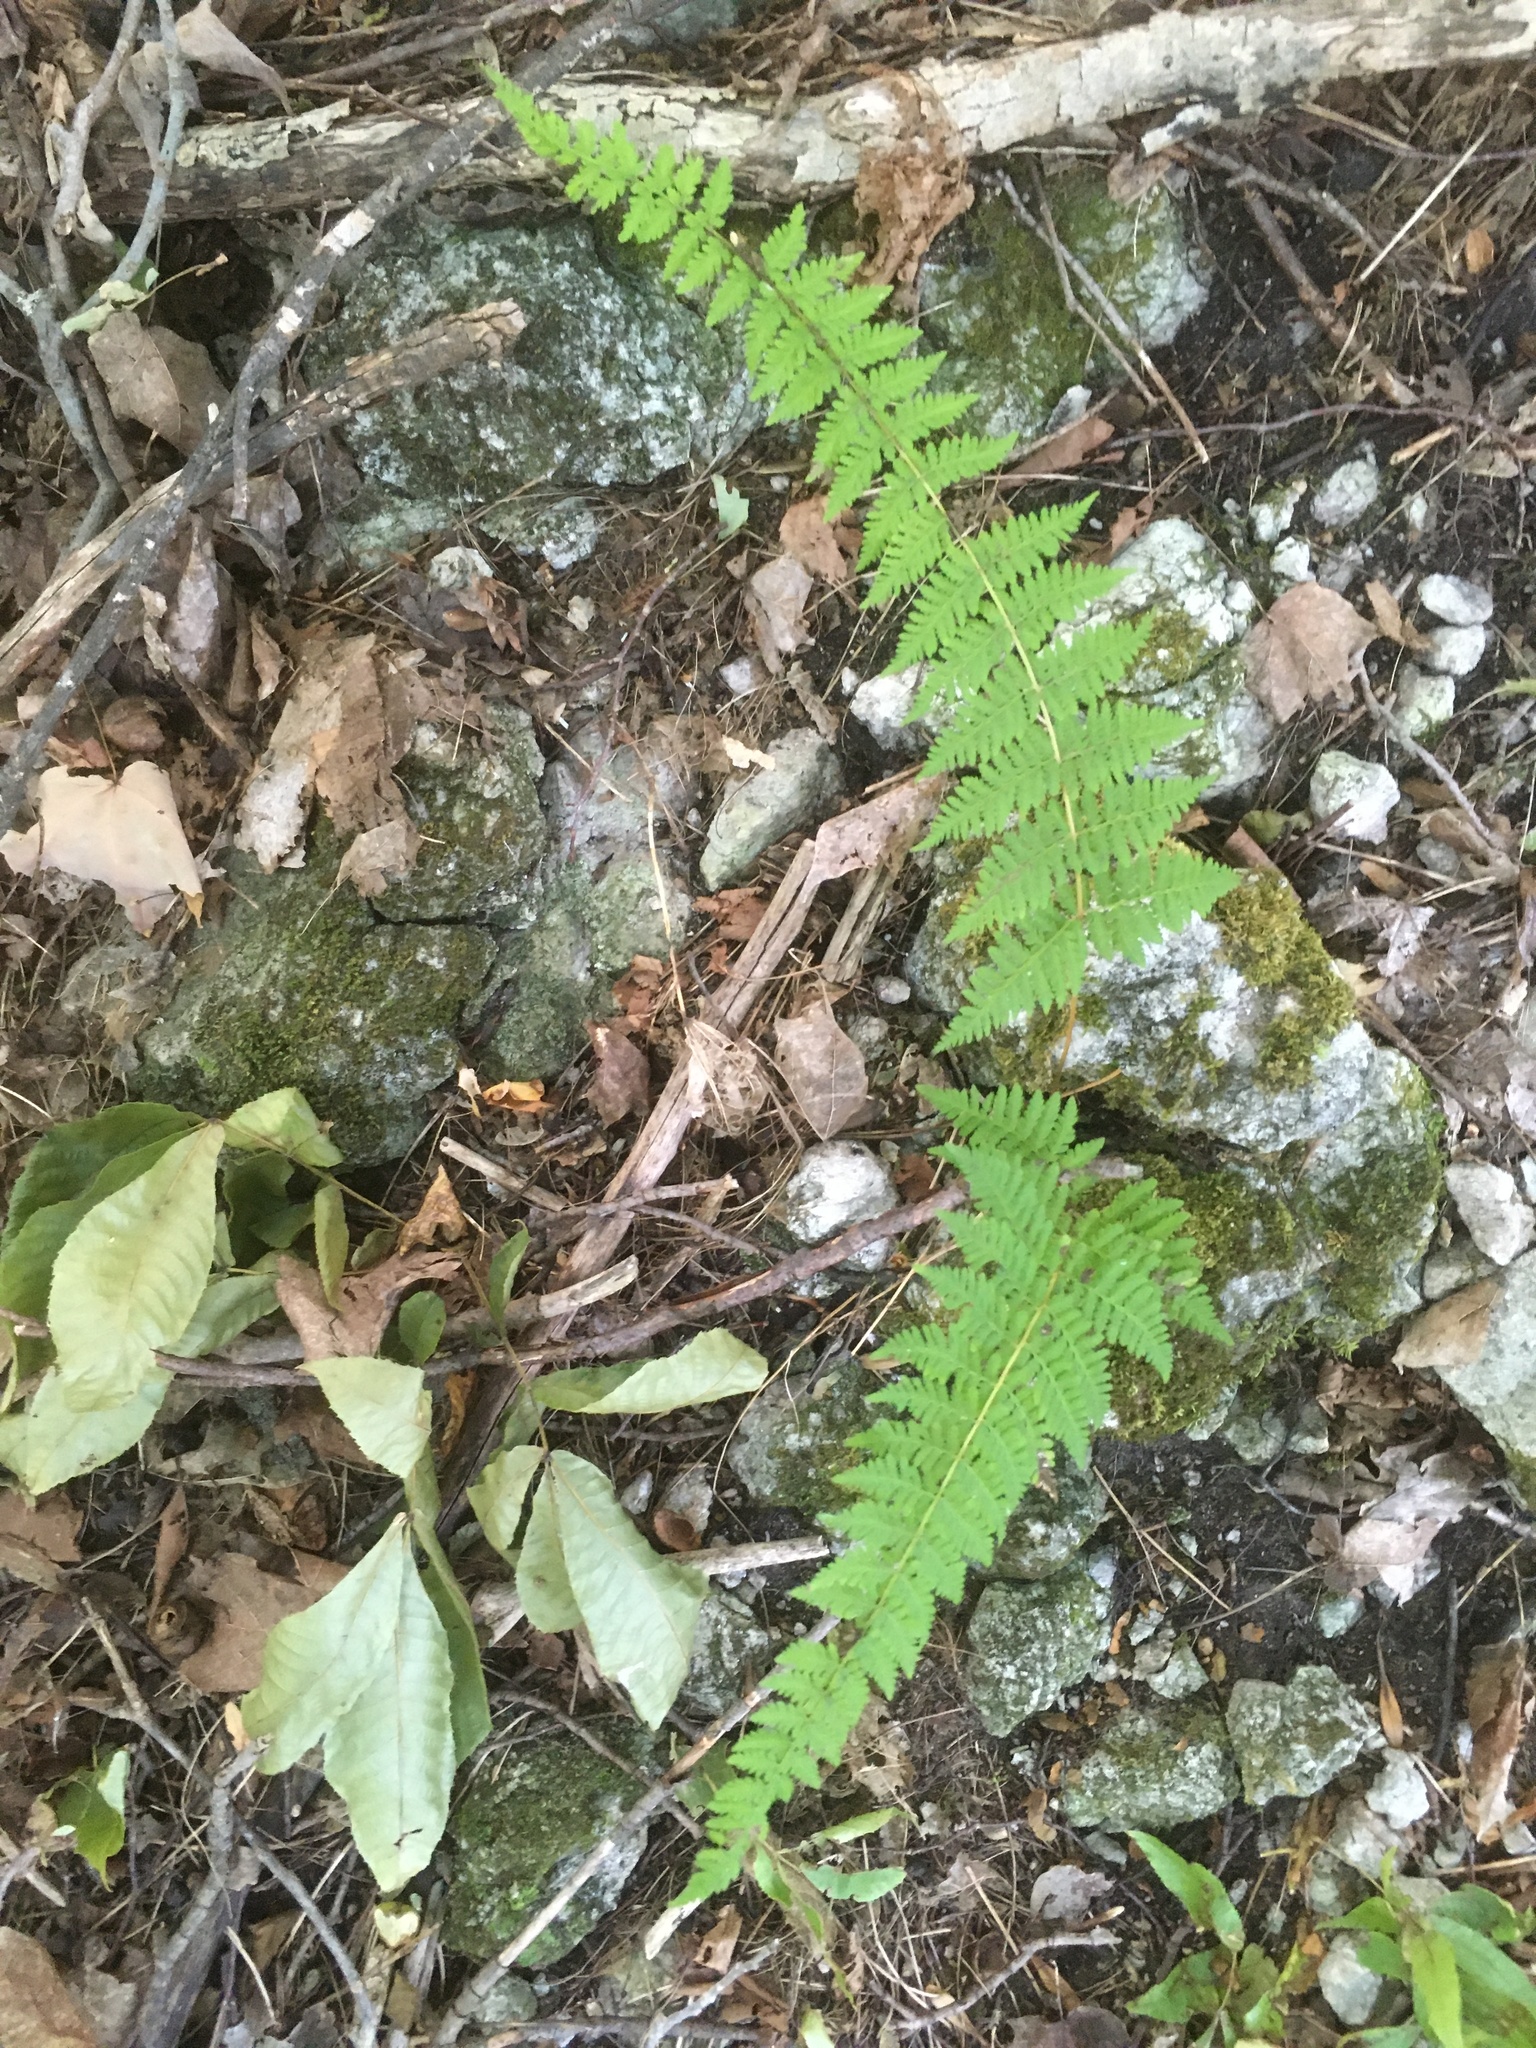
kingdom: Plantae
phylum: Tracheophyta
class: Polypodiopsida
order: Polypodiales
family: Cystopteridaceae
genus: Cystopteris
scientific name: Cystopteris bulbifera
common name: Bulblet bladder fern
